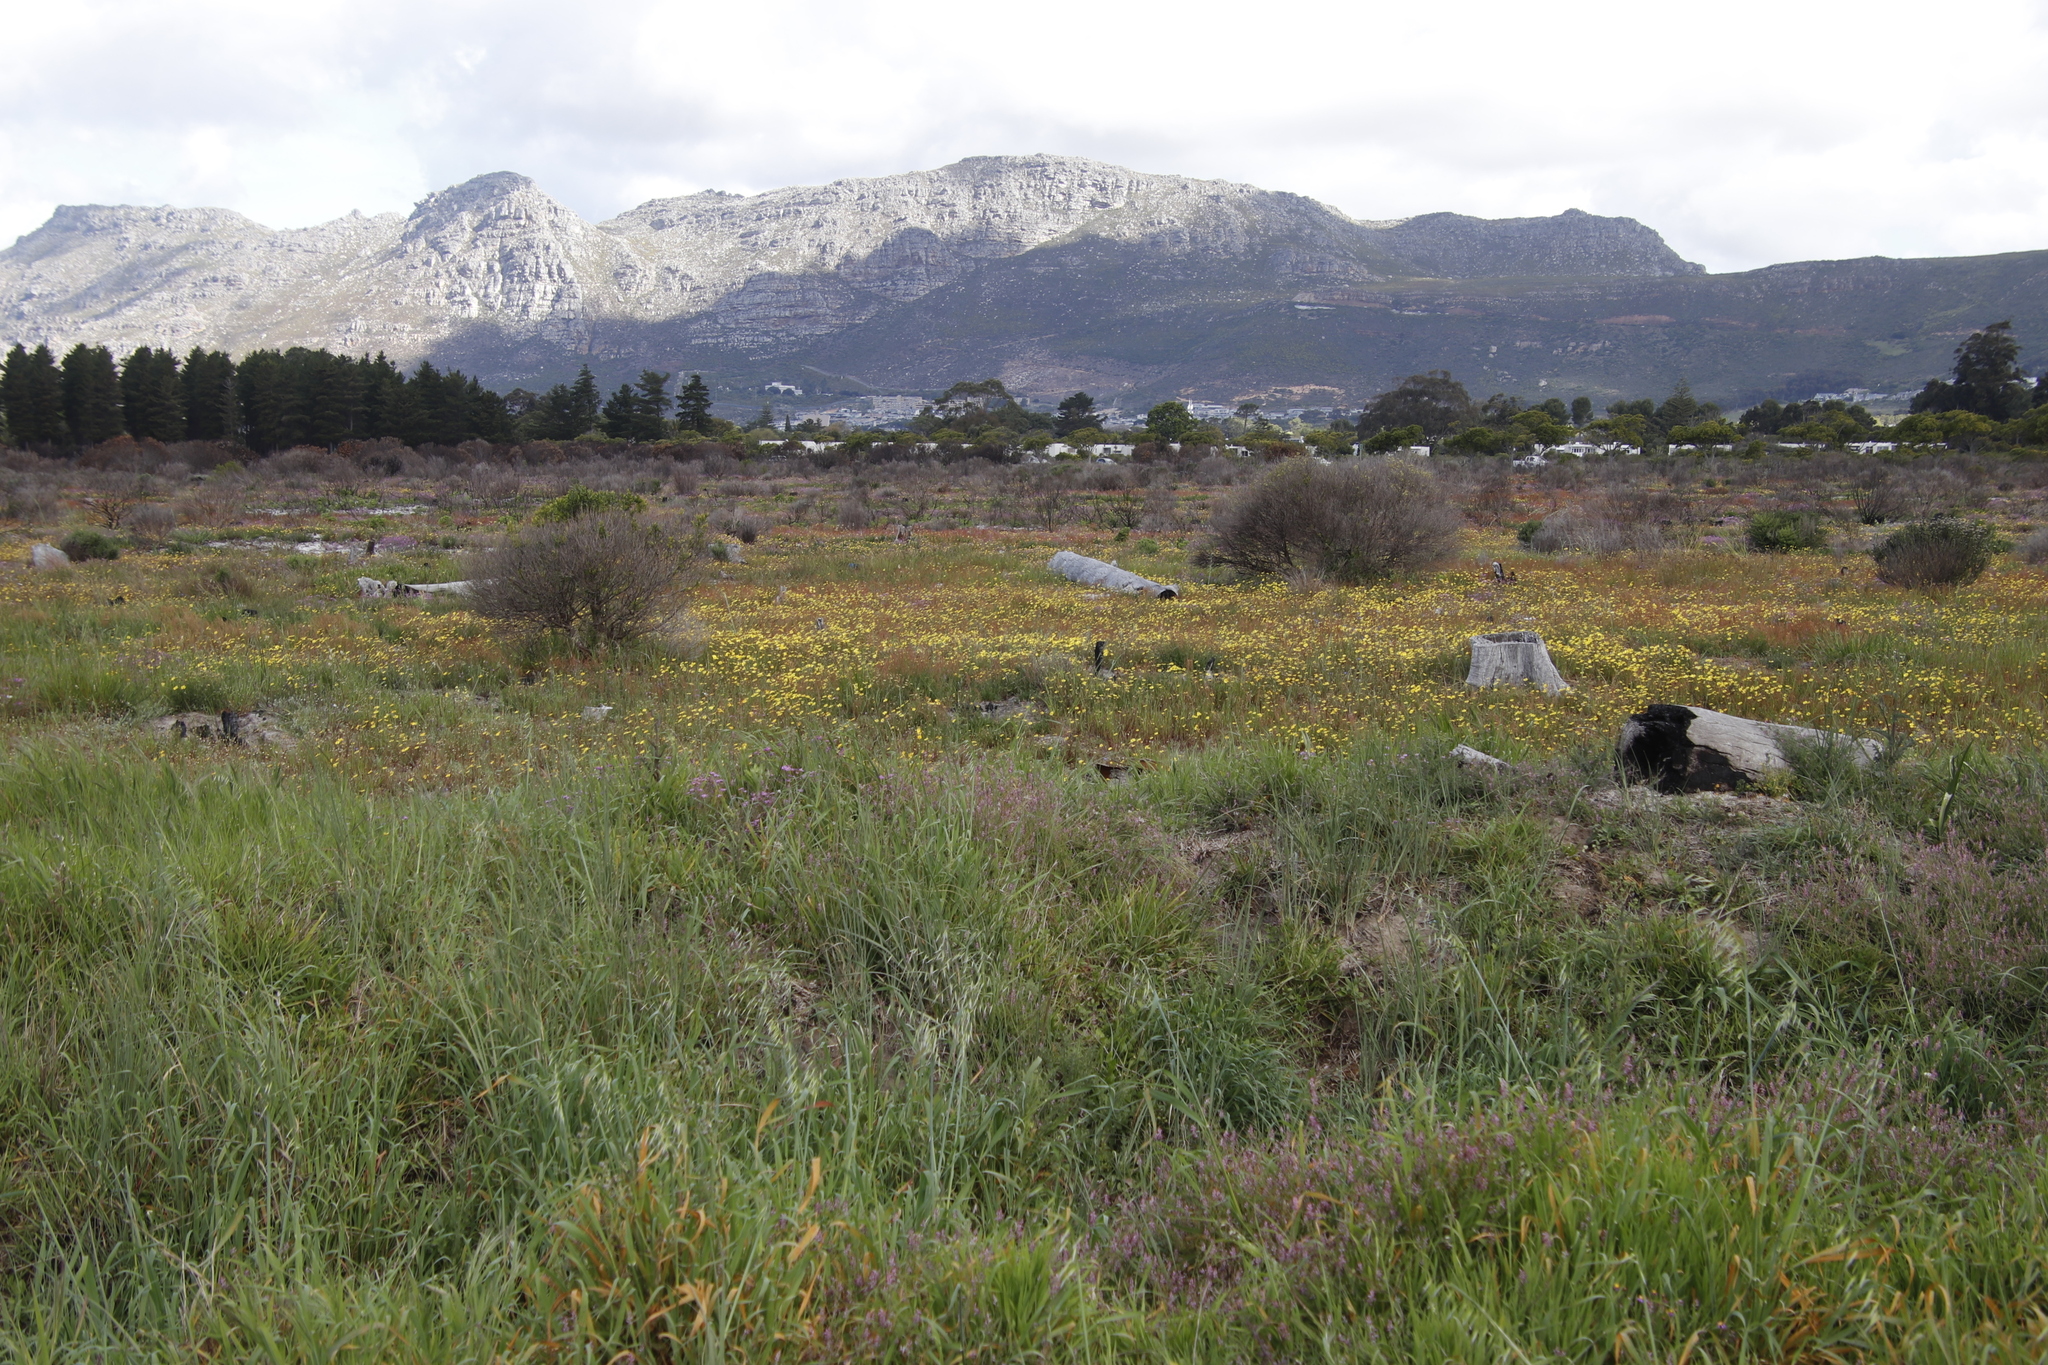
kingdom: Plantae
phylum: Tracheophyta
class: Magnoliopsida
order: Asterales
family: Asteraceae
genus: Ursinia
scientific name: Ursinia anthemoides
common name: Ursinia
